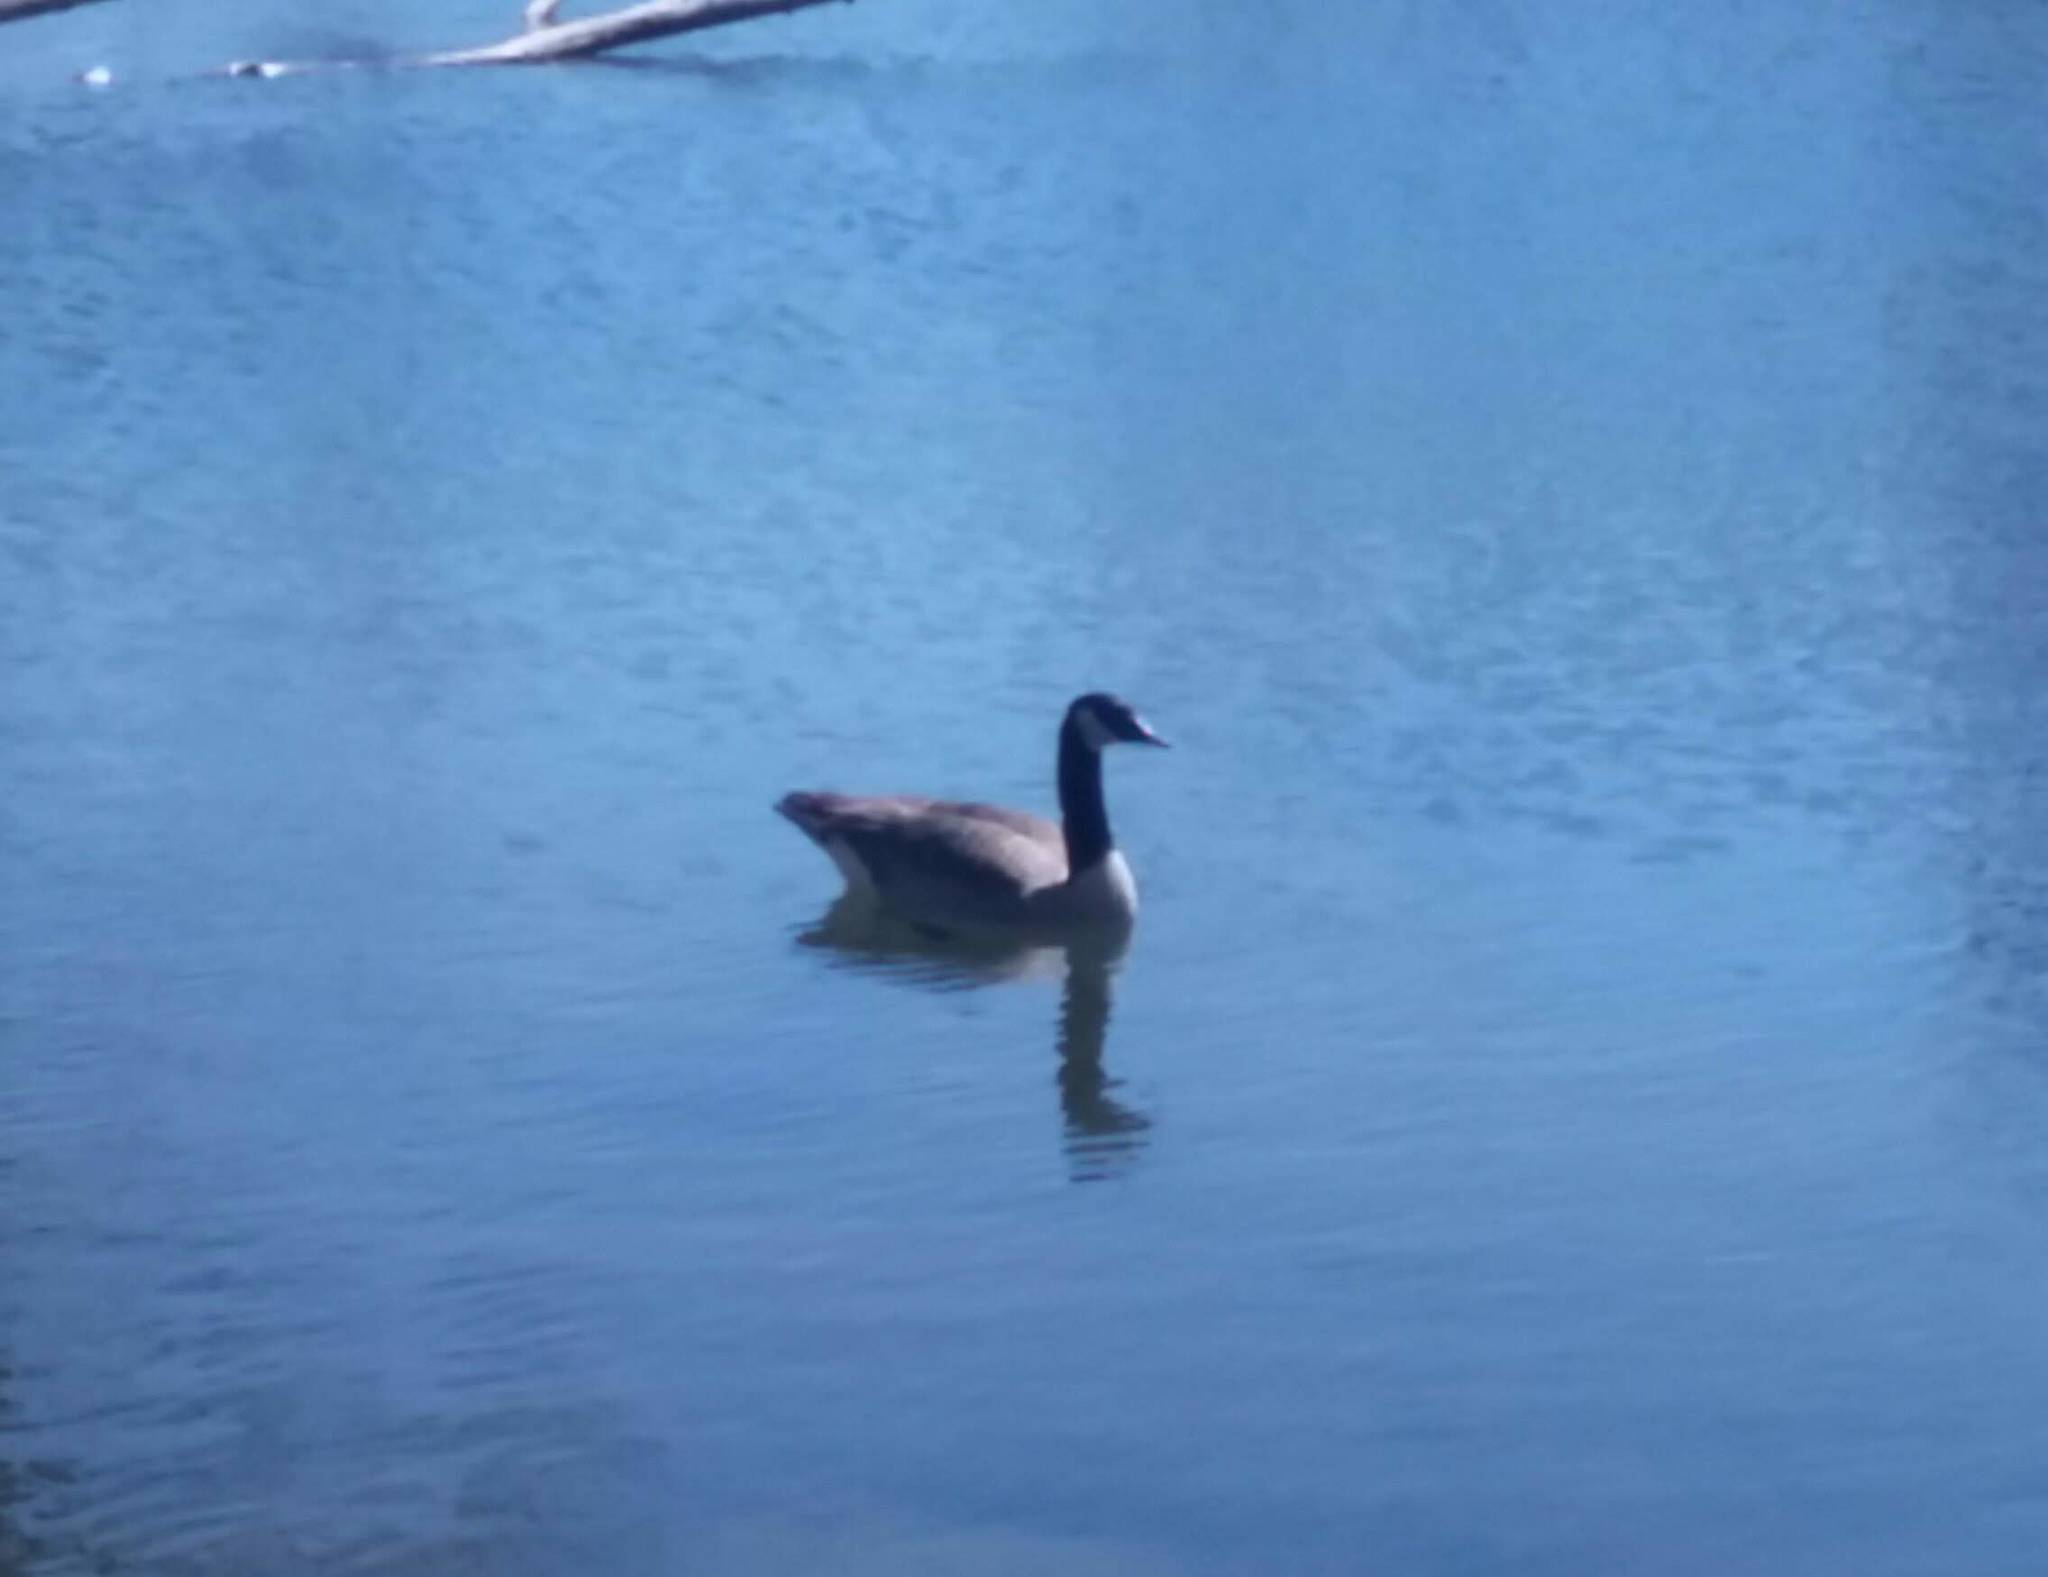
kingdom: Animalia
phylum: Chordata
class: Aves
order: Anseriformes
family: Anatidae
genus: Branta
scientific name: Branta canadensis
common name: Canada goose
